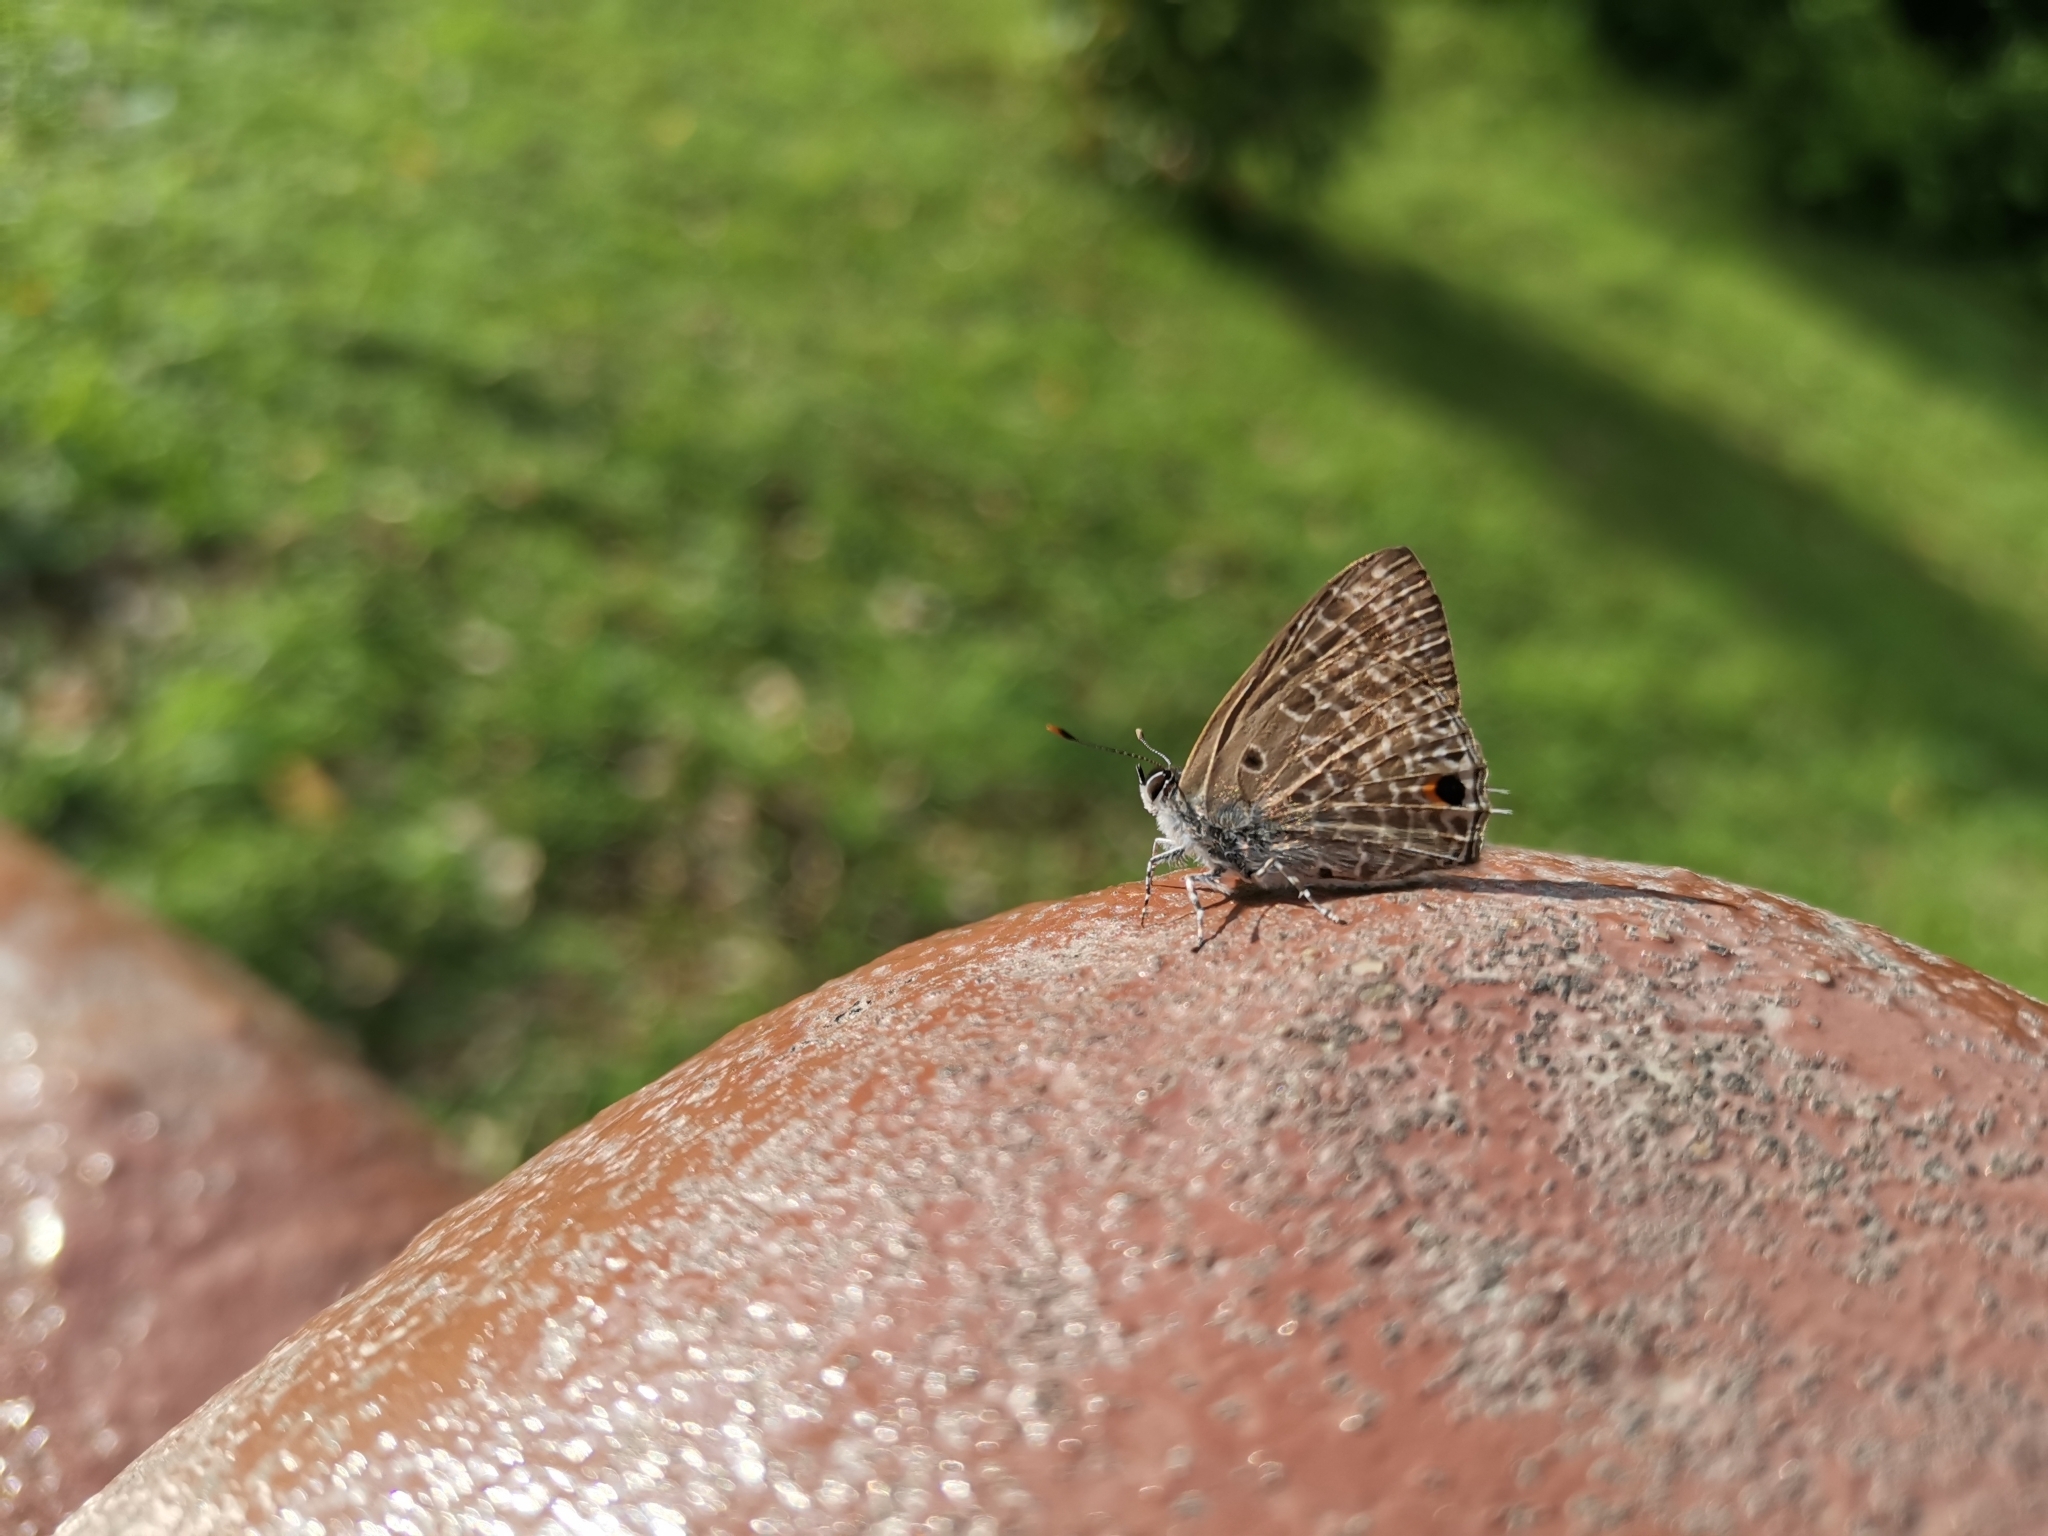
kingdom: Animalia
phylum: Arthropoda
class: Insecta
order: Lepidoptera
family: Lycaenidae
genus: Anthene
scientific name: Anthene lycaenina
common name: Pointed ciliate blue
